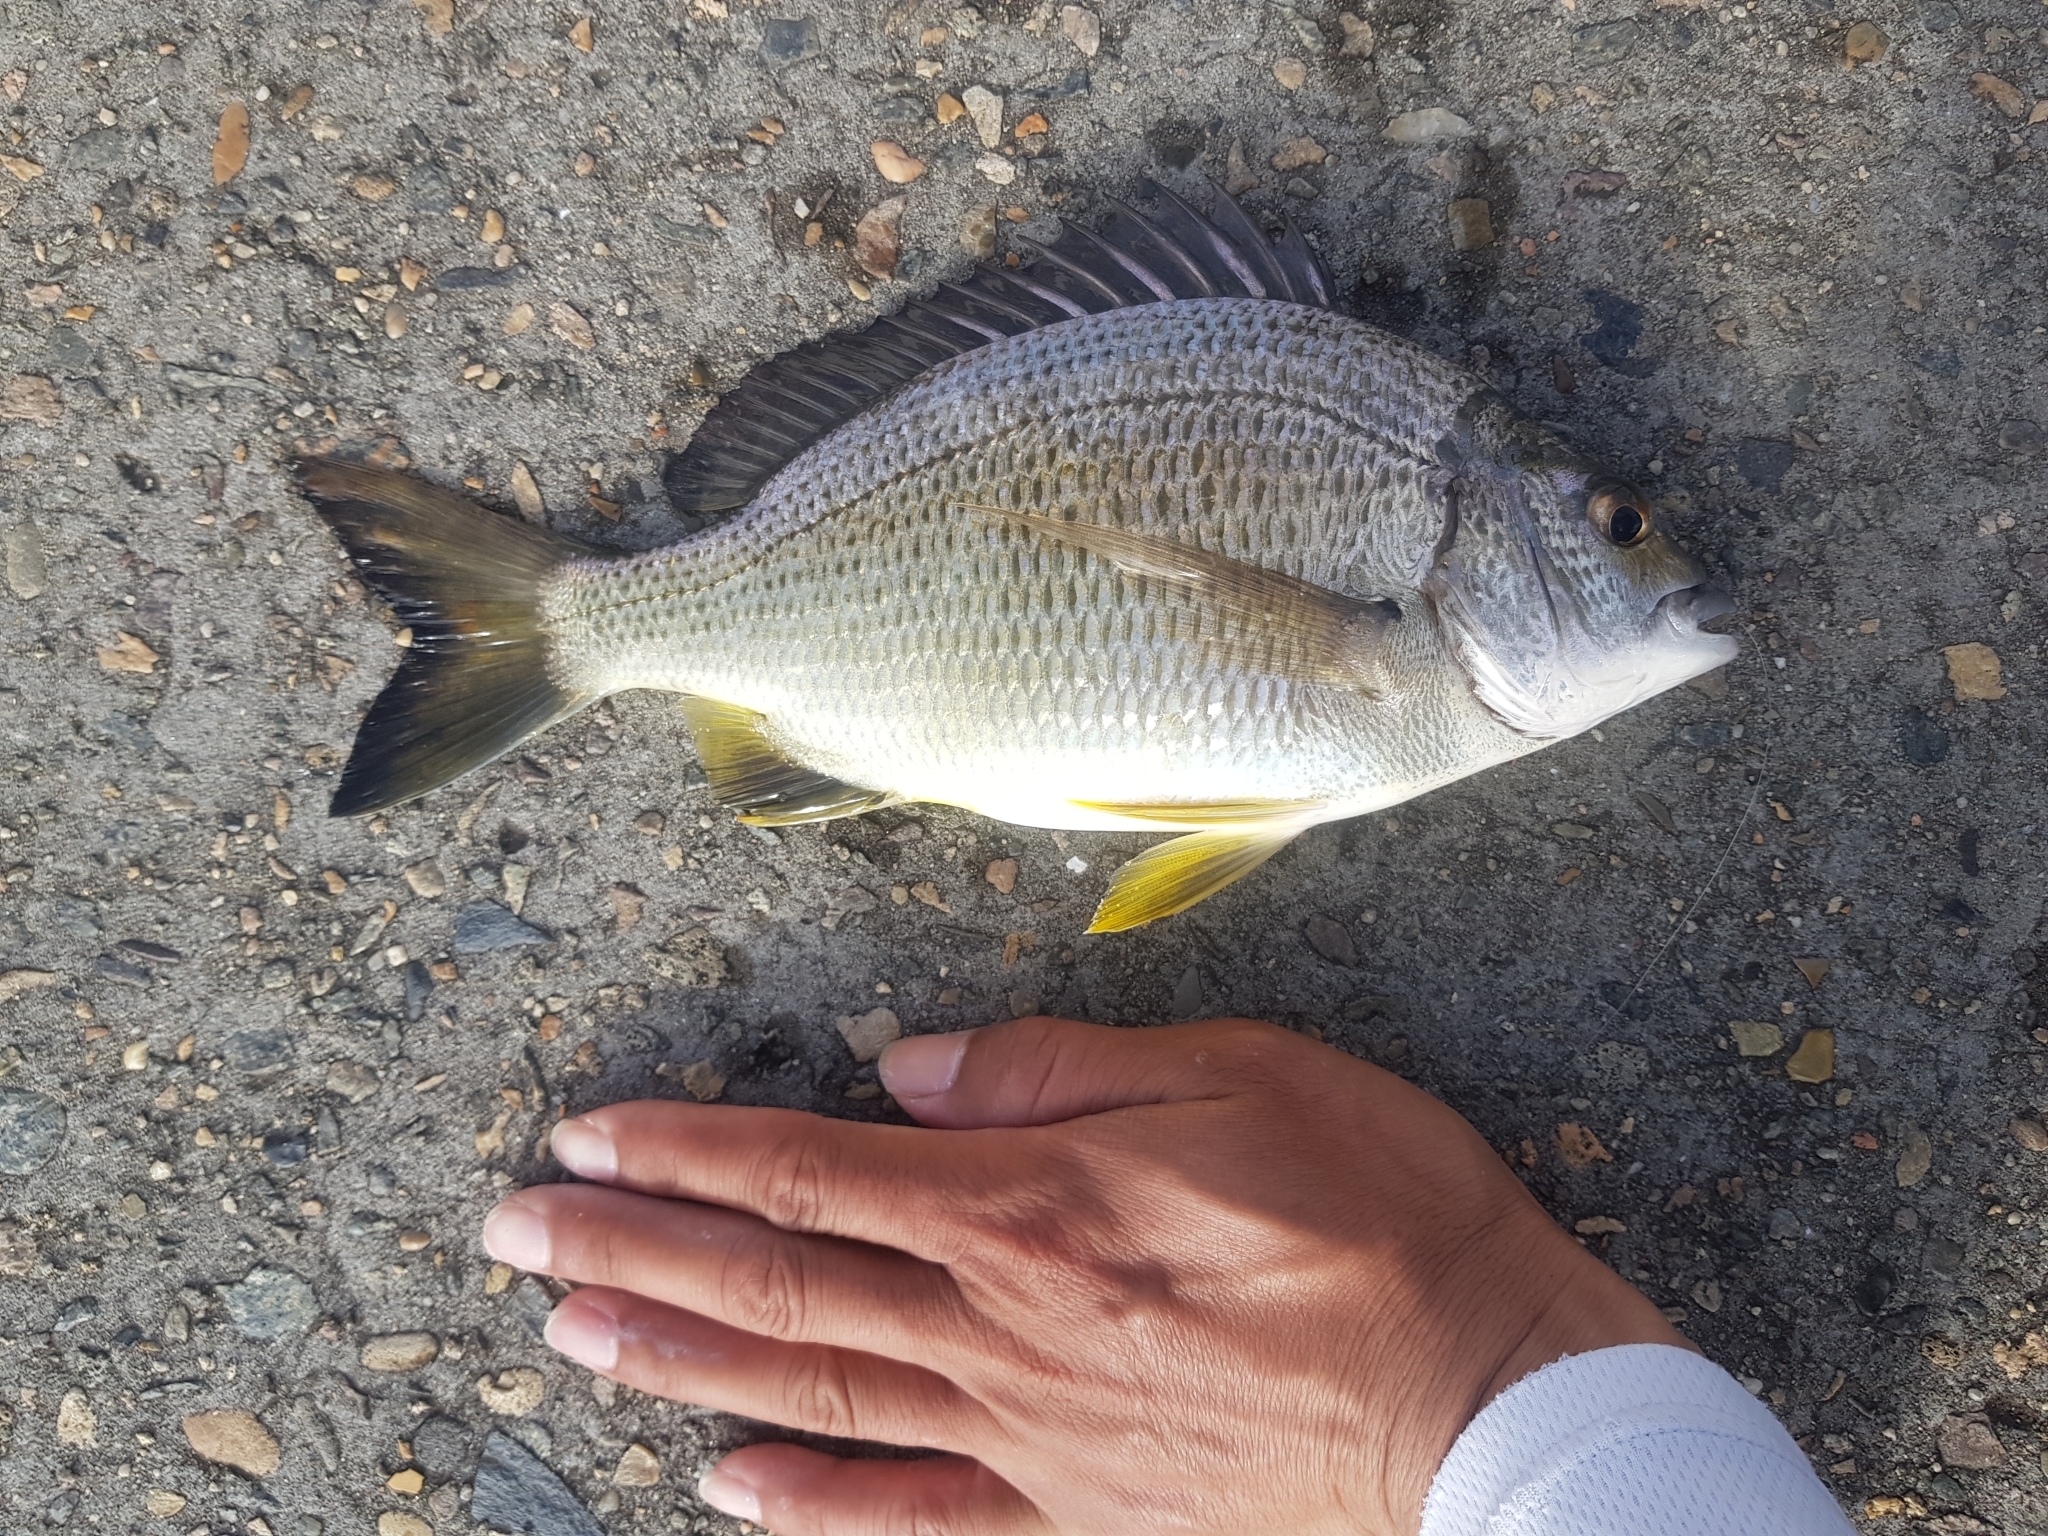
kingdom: Animalia
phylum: Chordata
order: Perciformes
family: Sparidae
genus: Acanthopagrus
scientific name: Acanthopagrus australis
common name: Surf bream
